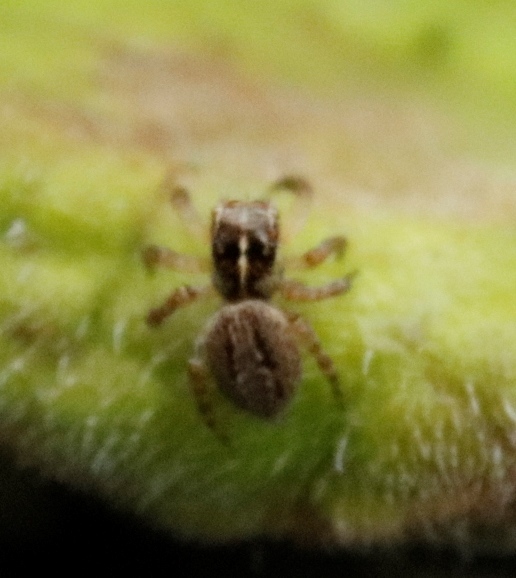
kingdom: Animalia
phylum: Arthropoda
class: Arachnida
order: Araneae
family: Salticidae
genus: Thyenula
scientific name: Thyenula munda
